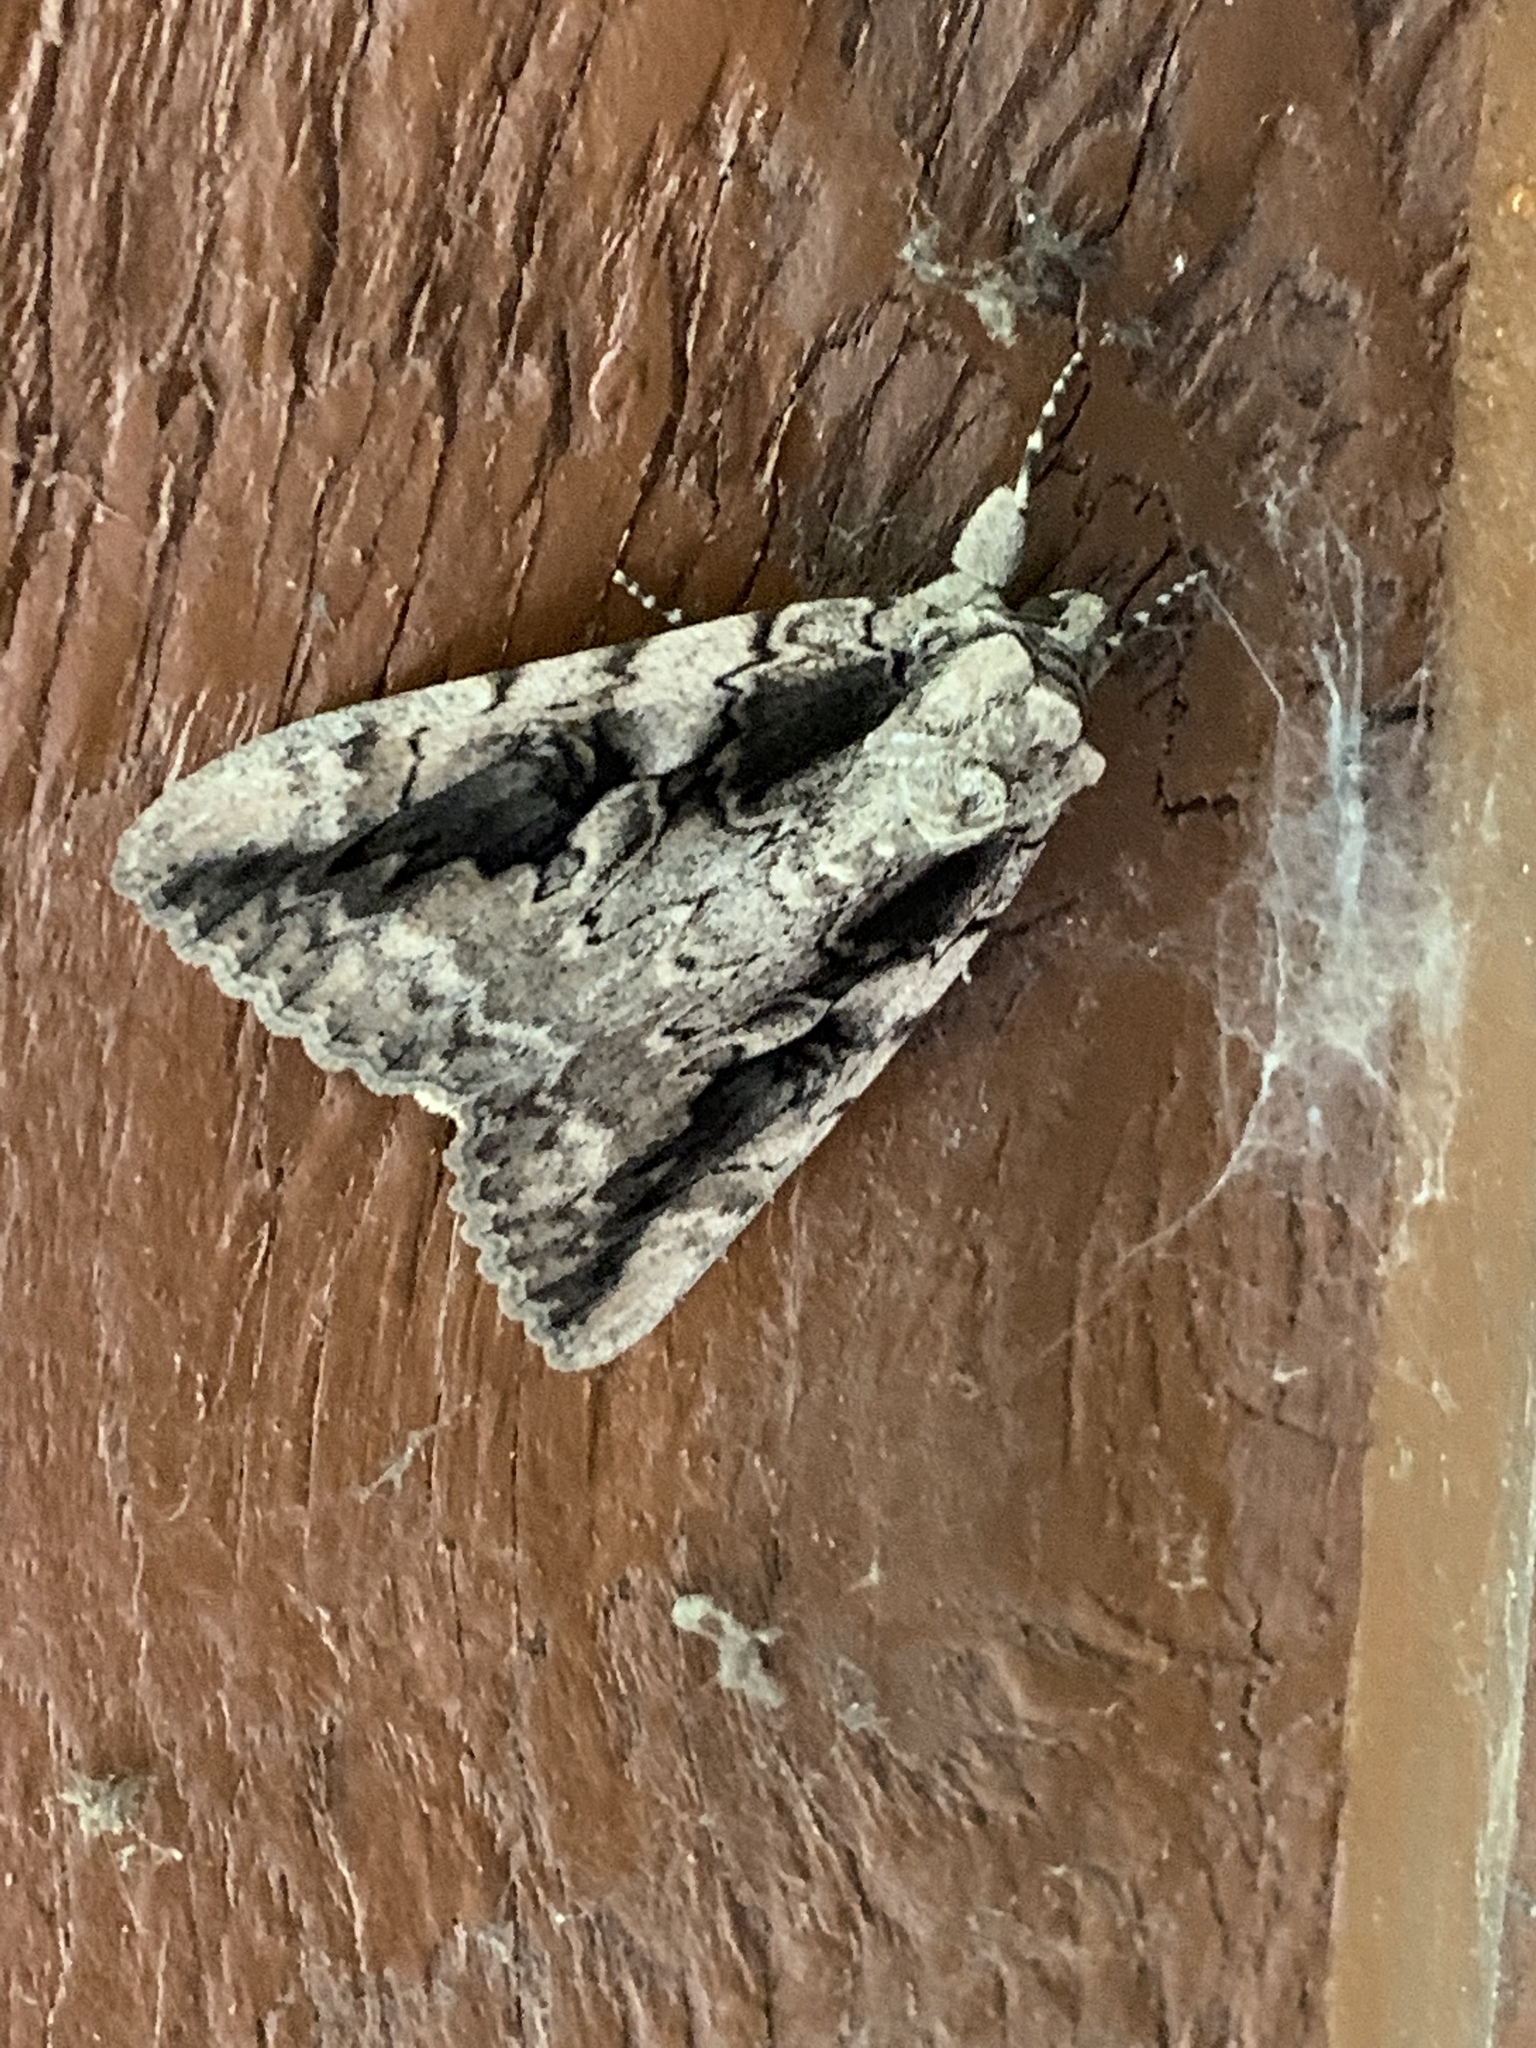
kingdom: Animalia
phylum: Arthropoda
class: Insecta
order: Lepidoptera
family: Erebidae
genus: Catocala
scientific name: Catocala amatrix
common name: Sweetheart underwing
